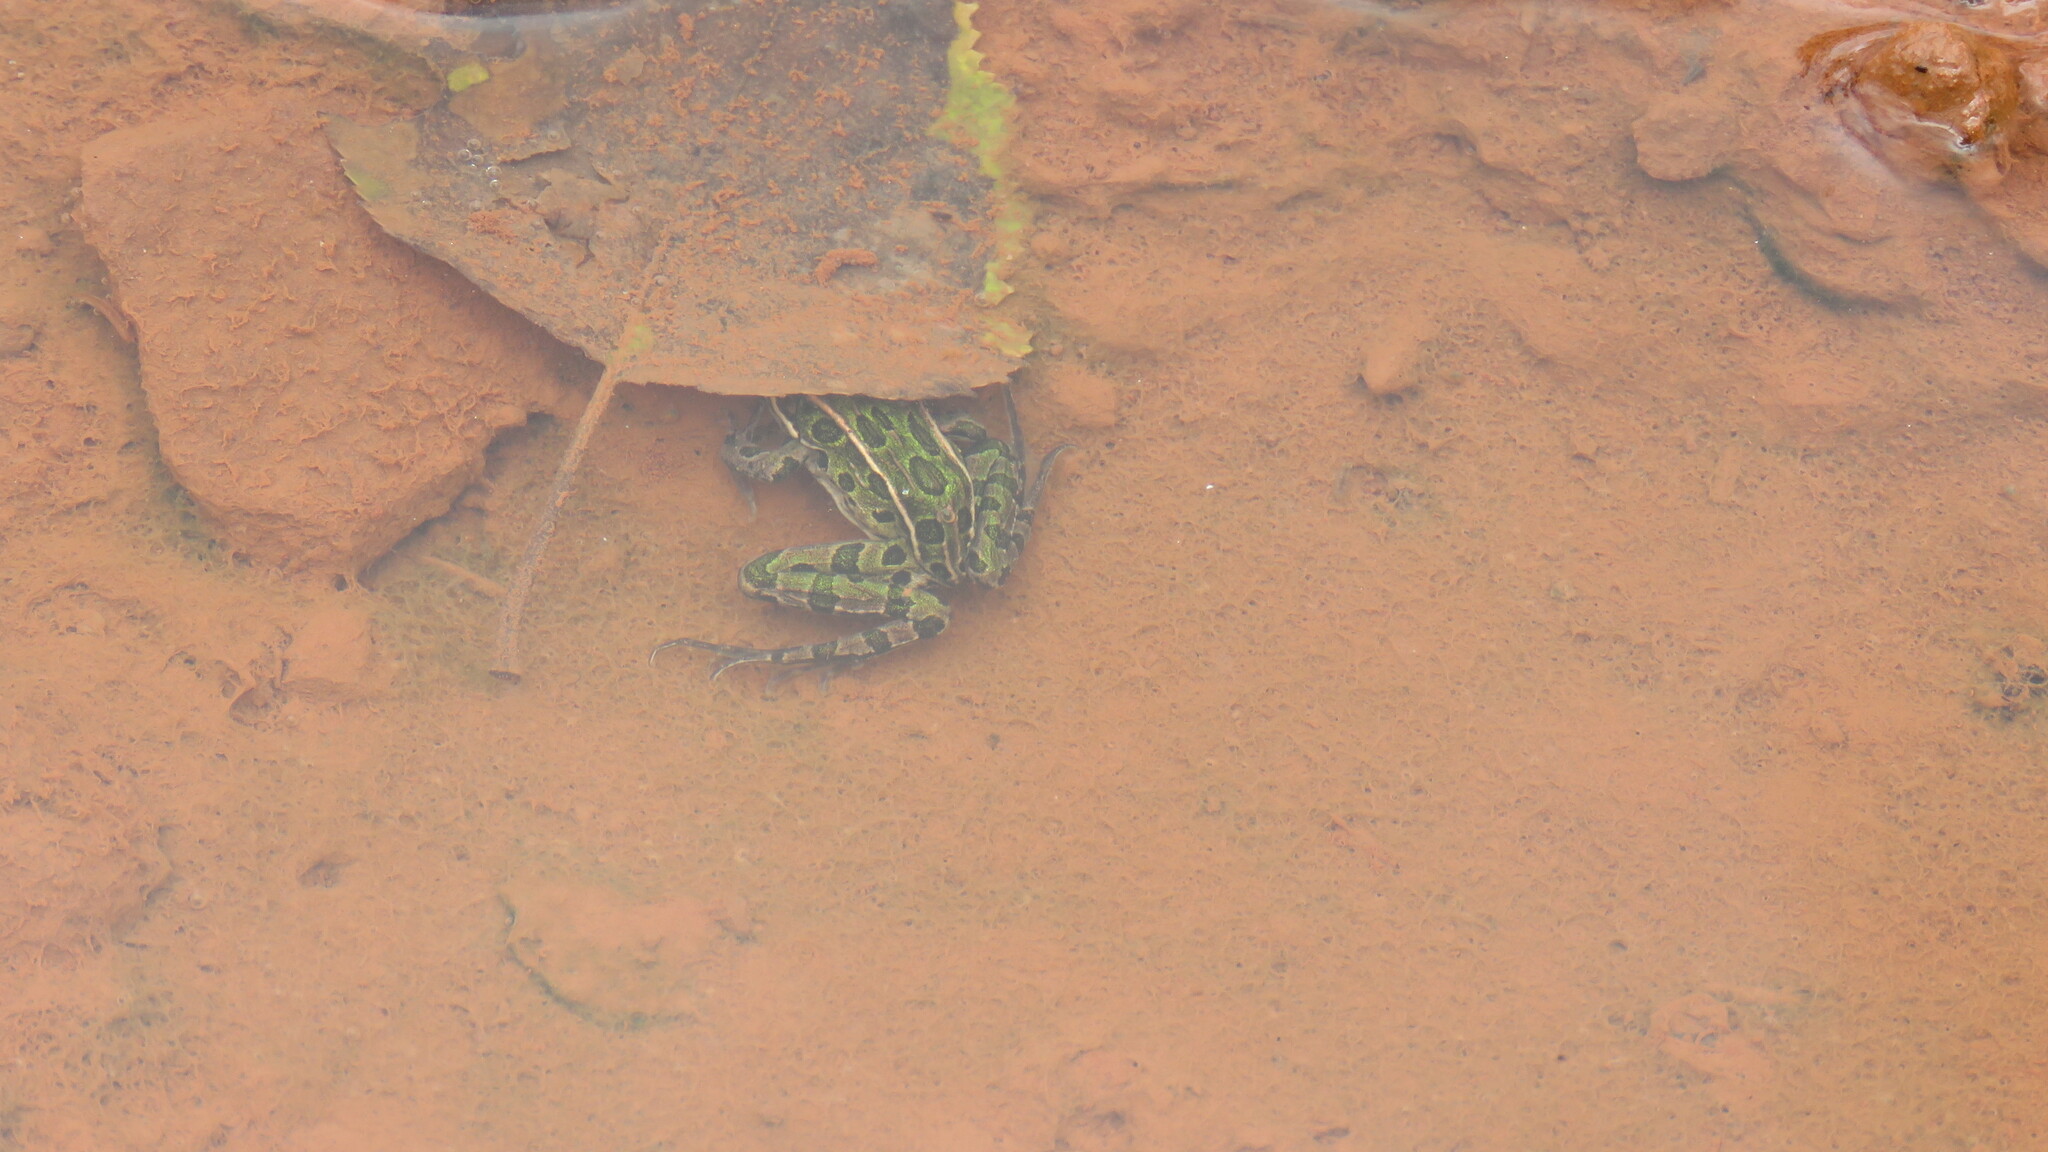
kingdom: Animalia
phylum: Chordata
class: Amphibia
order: Anura
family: Ranidae
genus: Lithobates
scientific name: Lithobates pipiens
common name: Northern leopard frog
